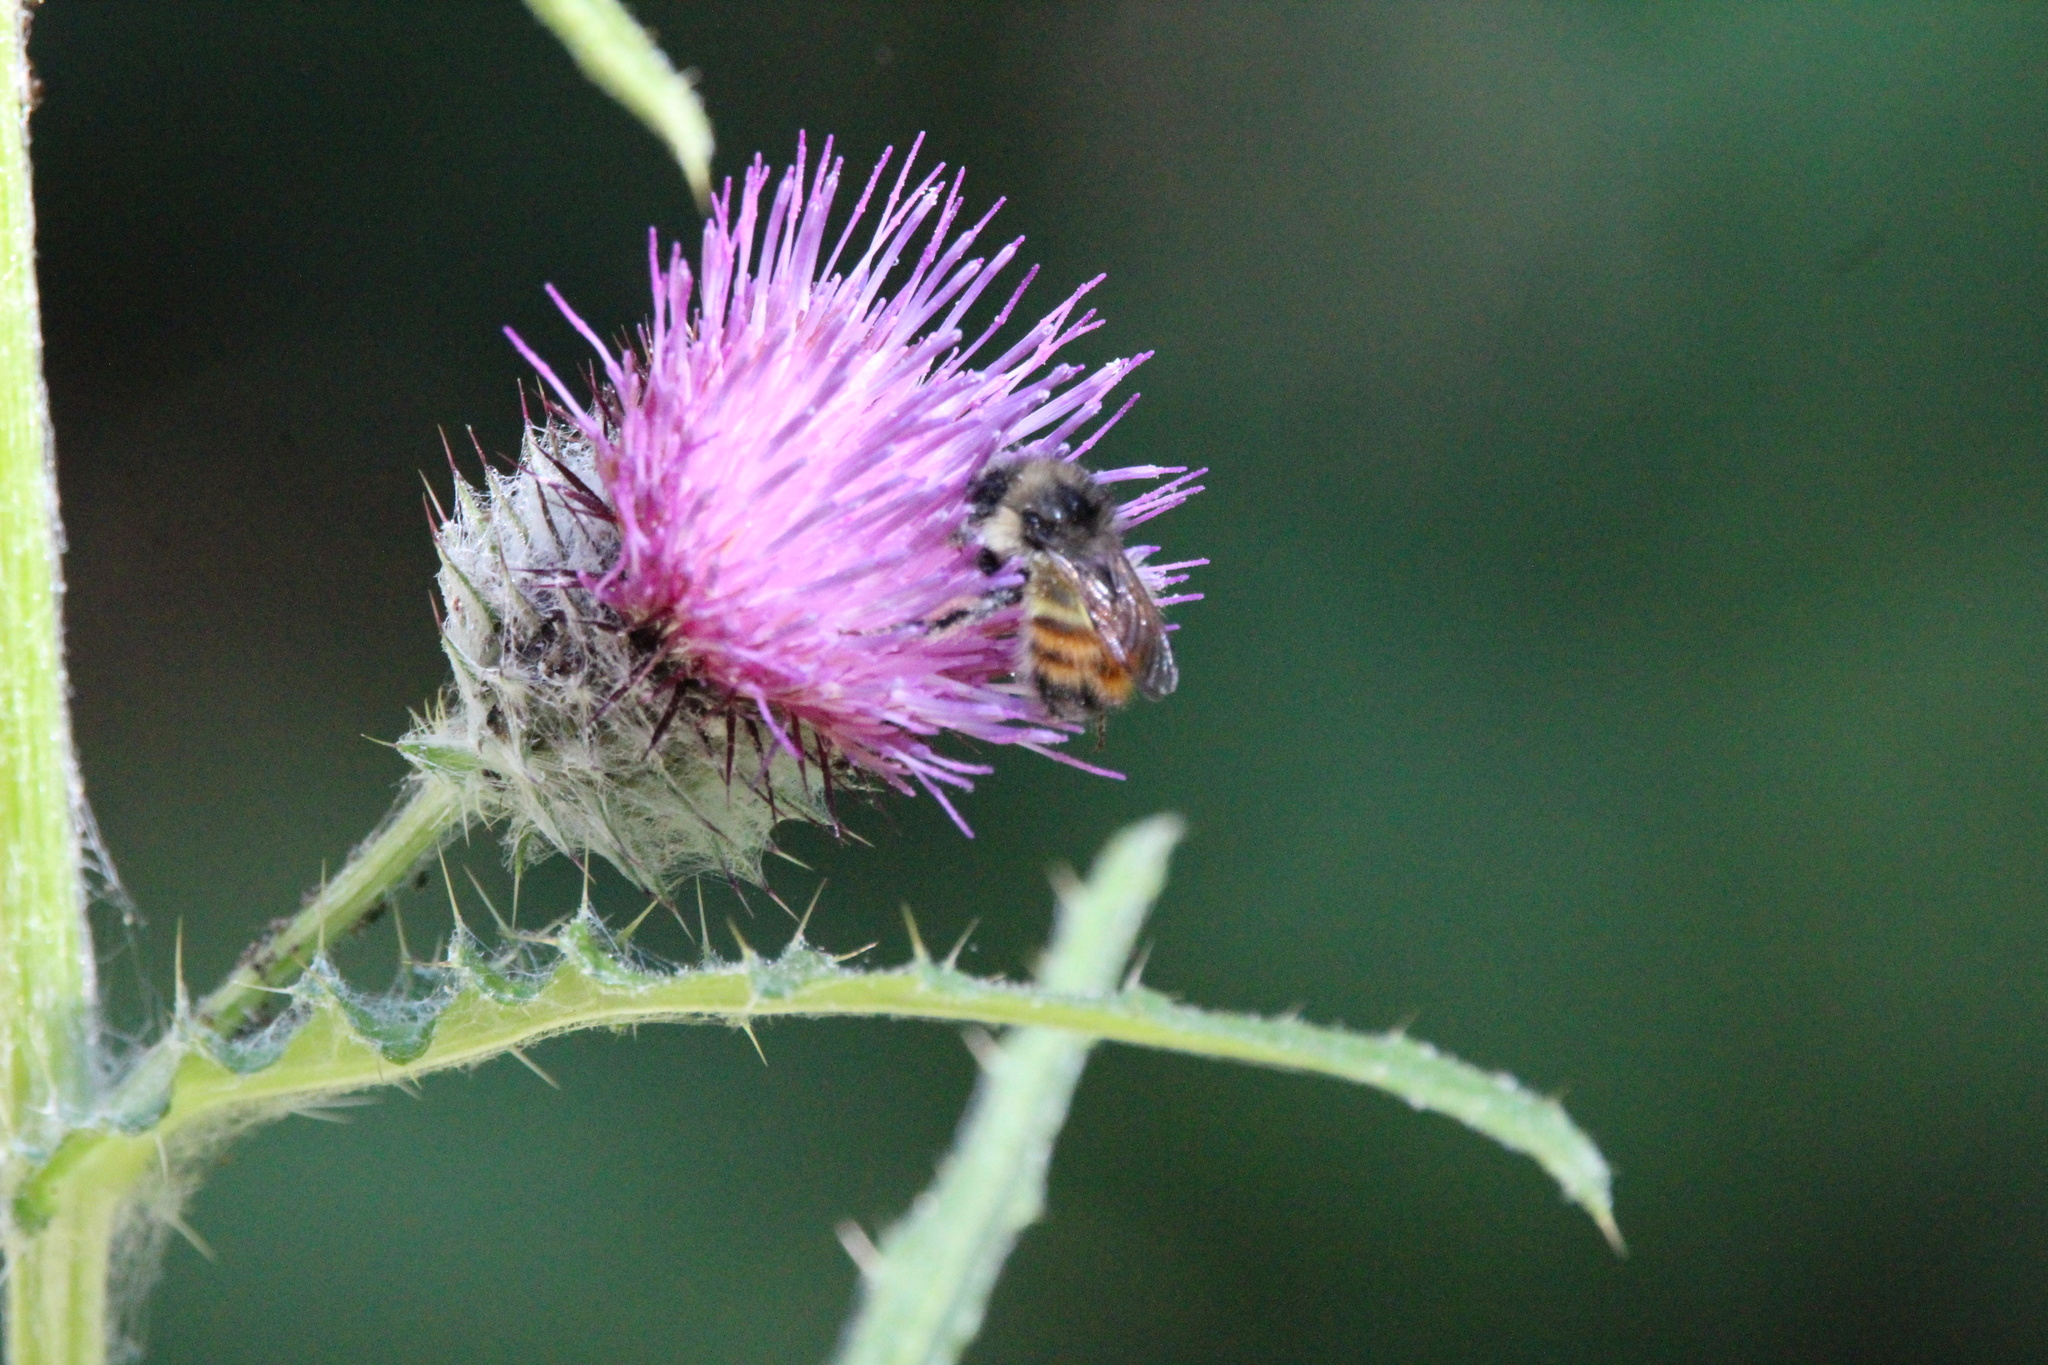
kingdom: Animalia
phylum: Arthropoda
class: Insecta
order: Hymenoptera
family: Apidae
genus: Bombus
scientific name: Bombus flavifrons
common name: Yellow head bumble bee
